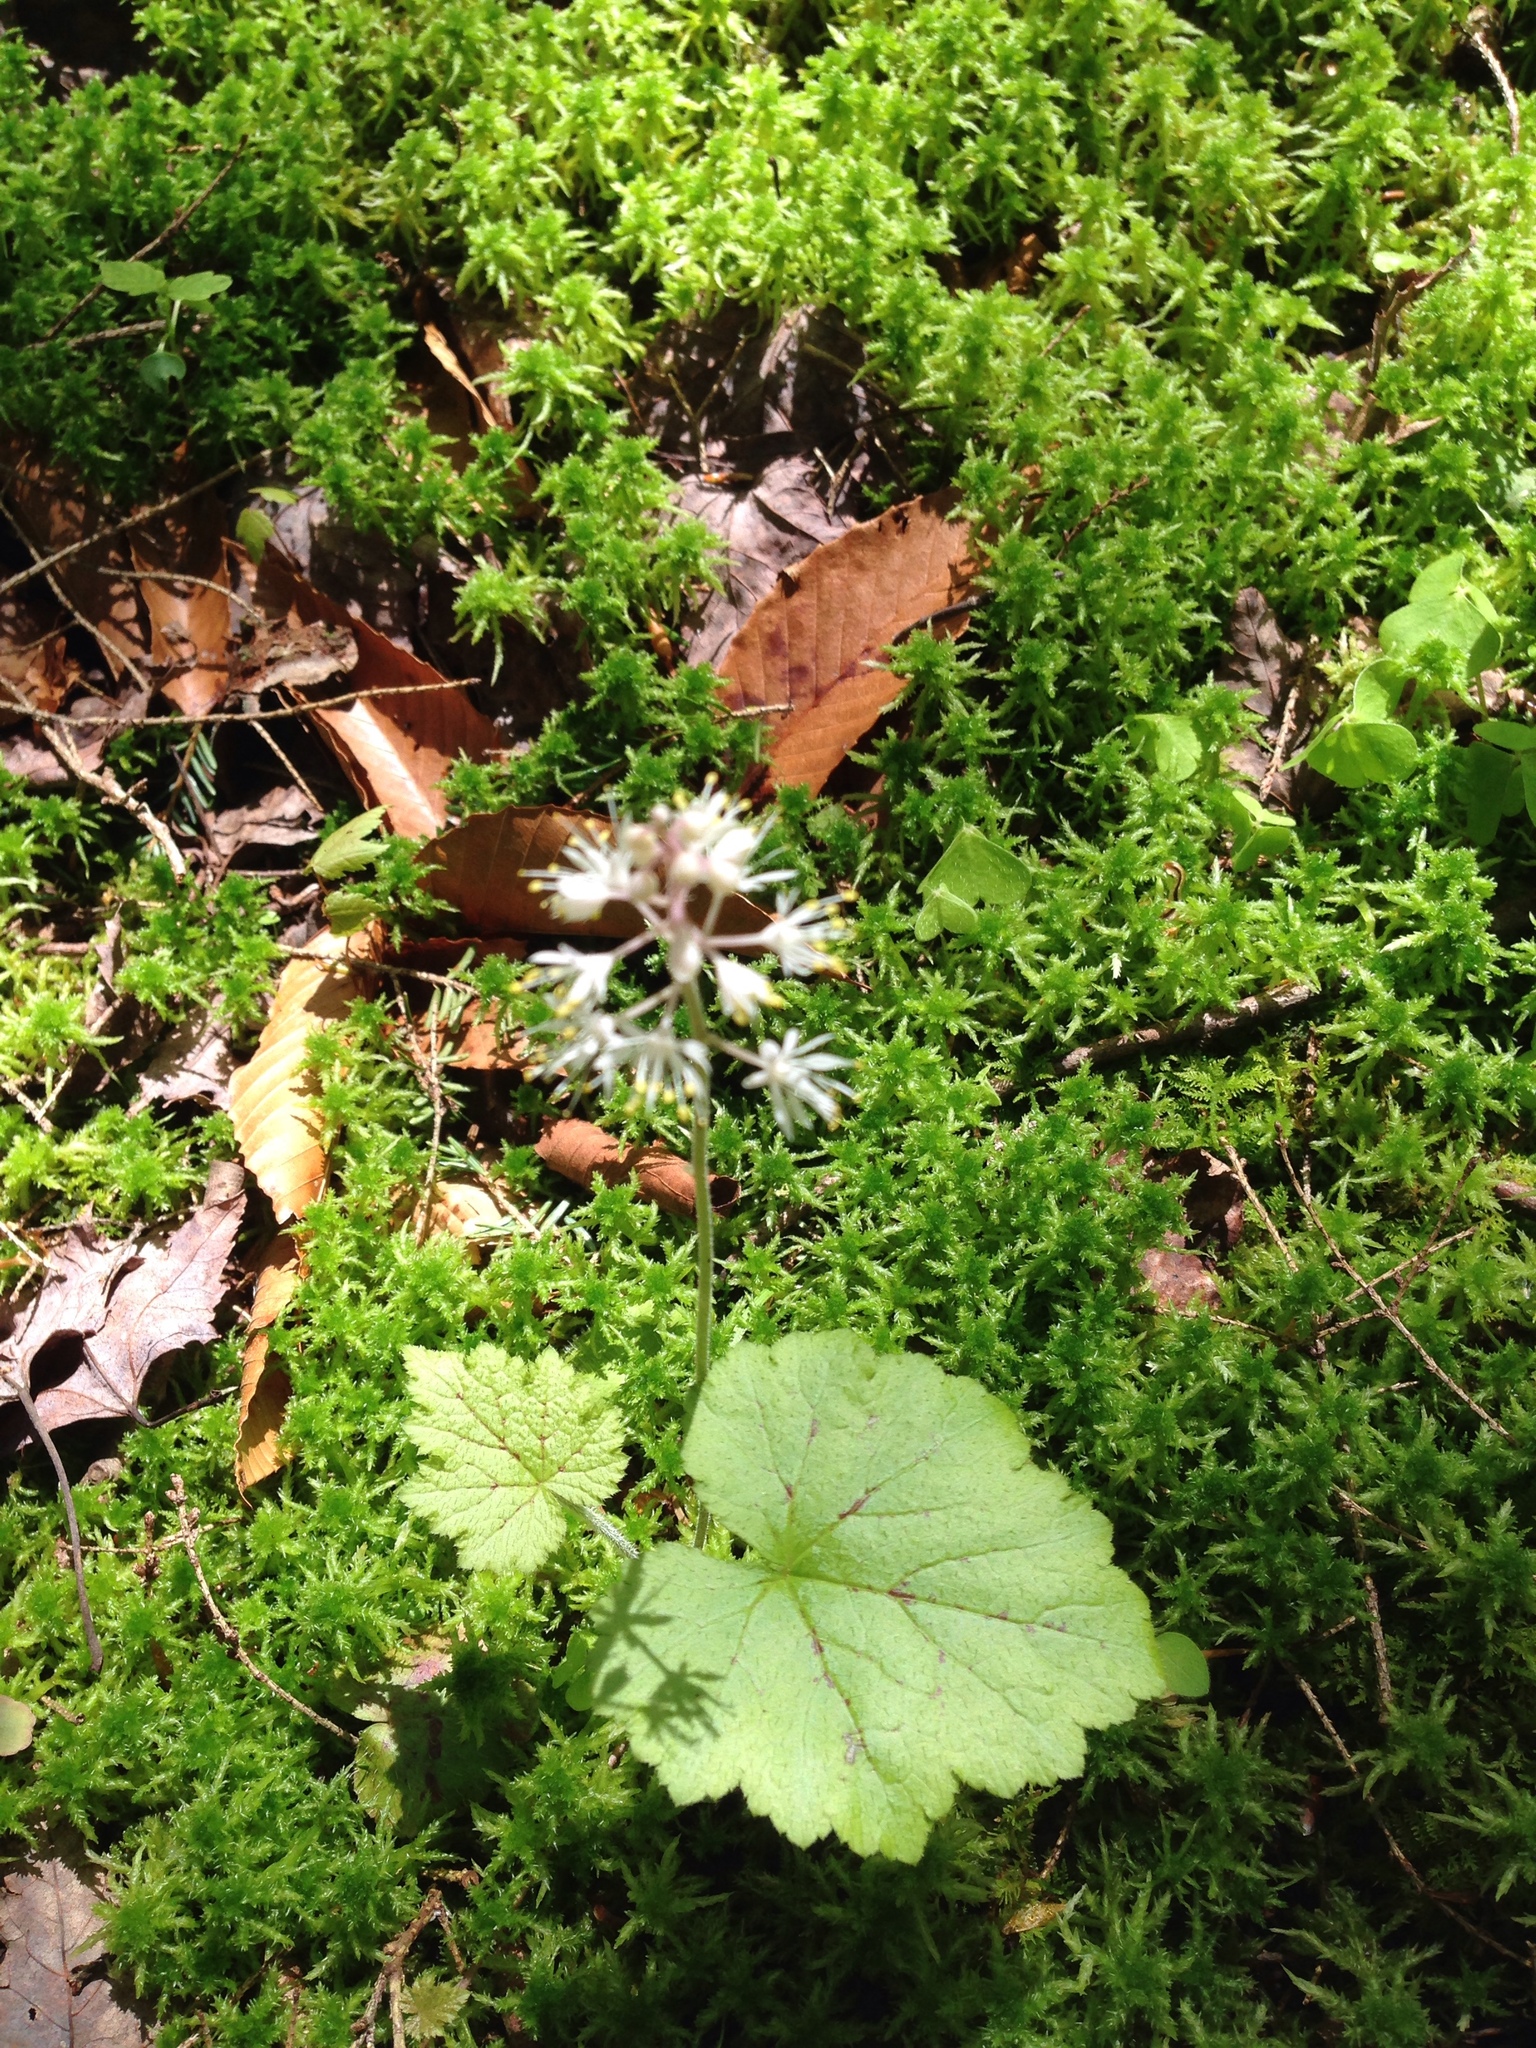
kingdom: Plantae
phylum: Tracheophyta
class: Magnoliopsida
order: Saxifragales
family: Saxifragaceae
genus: Tiarella
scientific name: Tiarella stolonifera
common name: Stoloniferous foamflower
